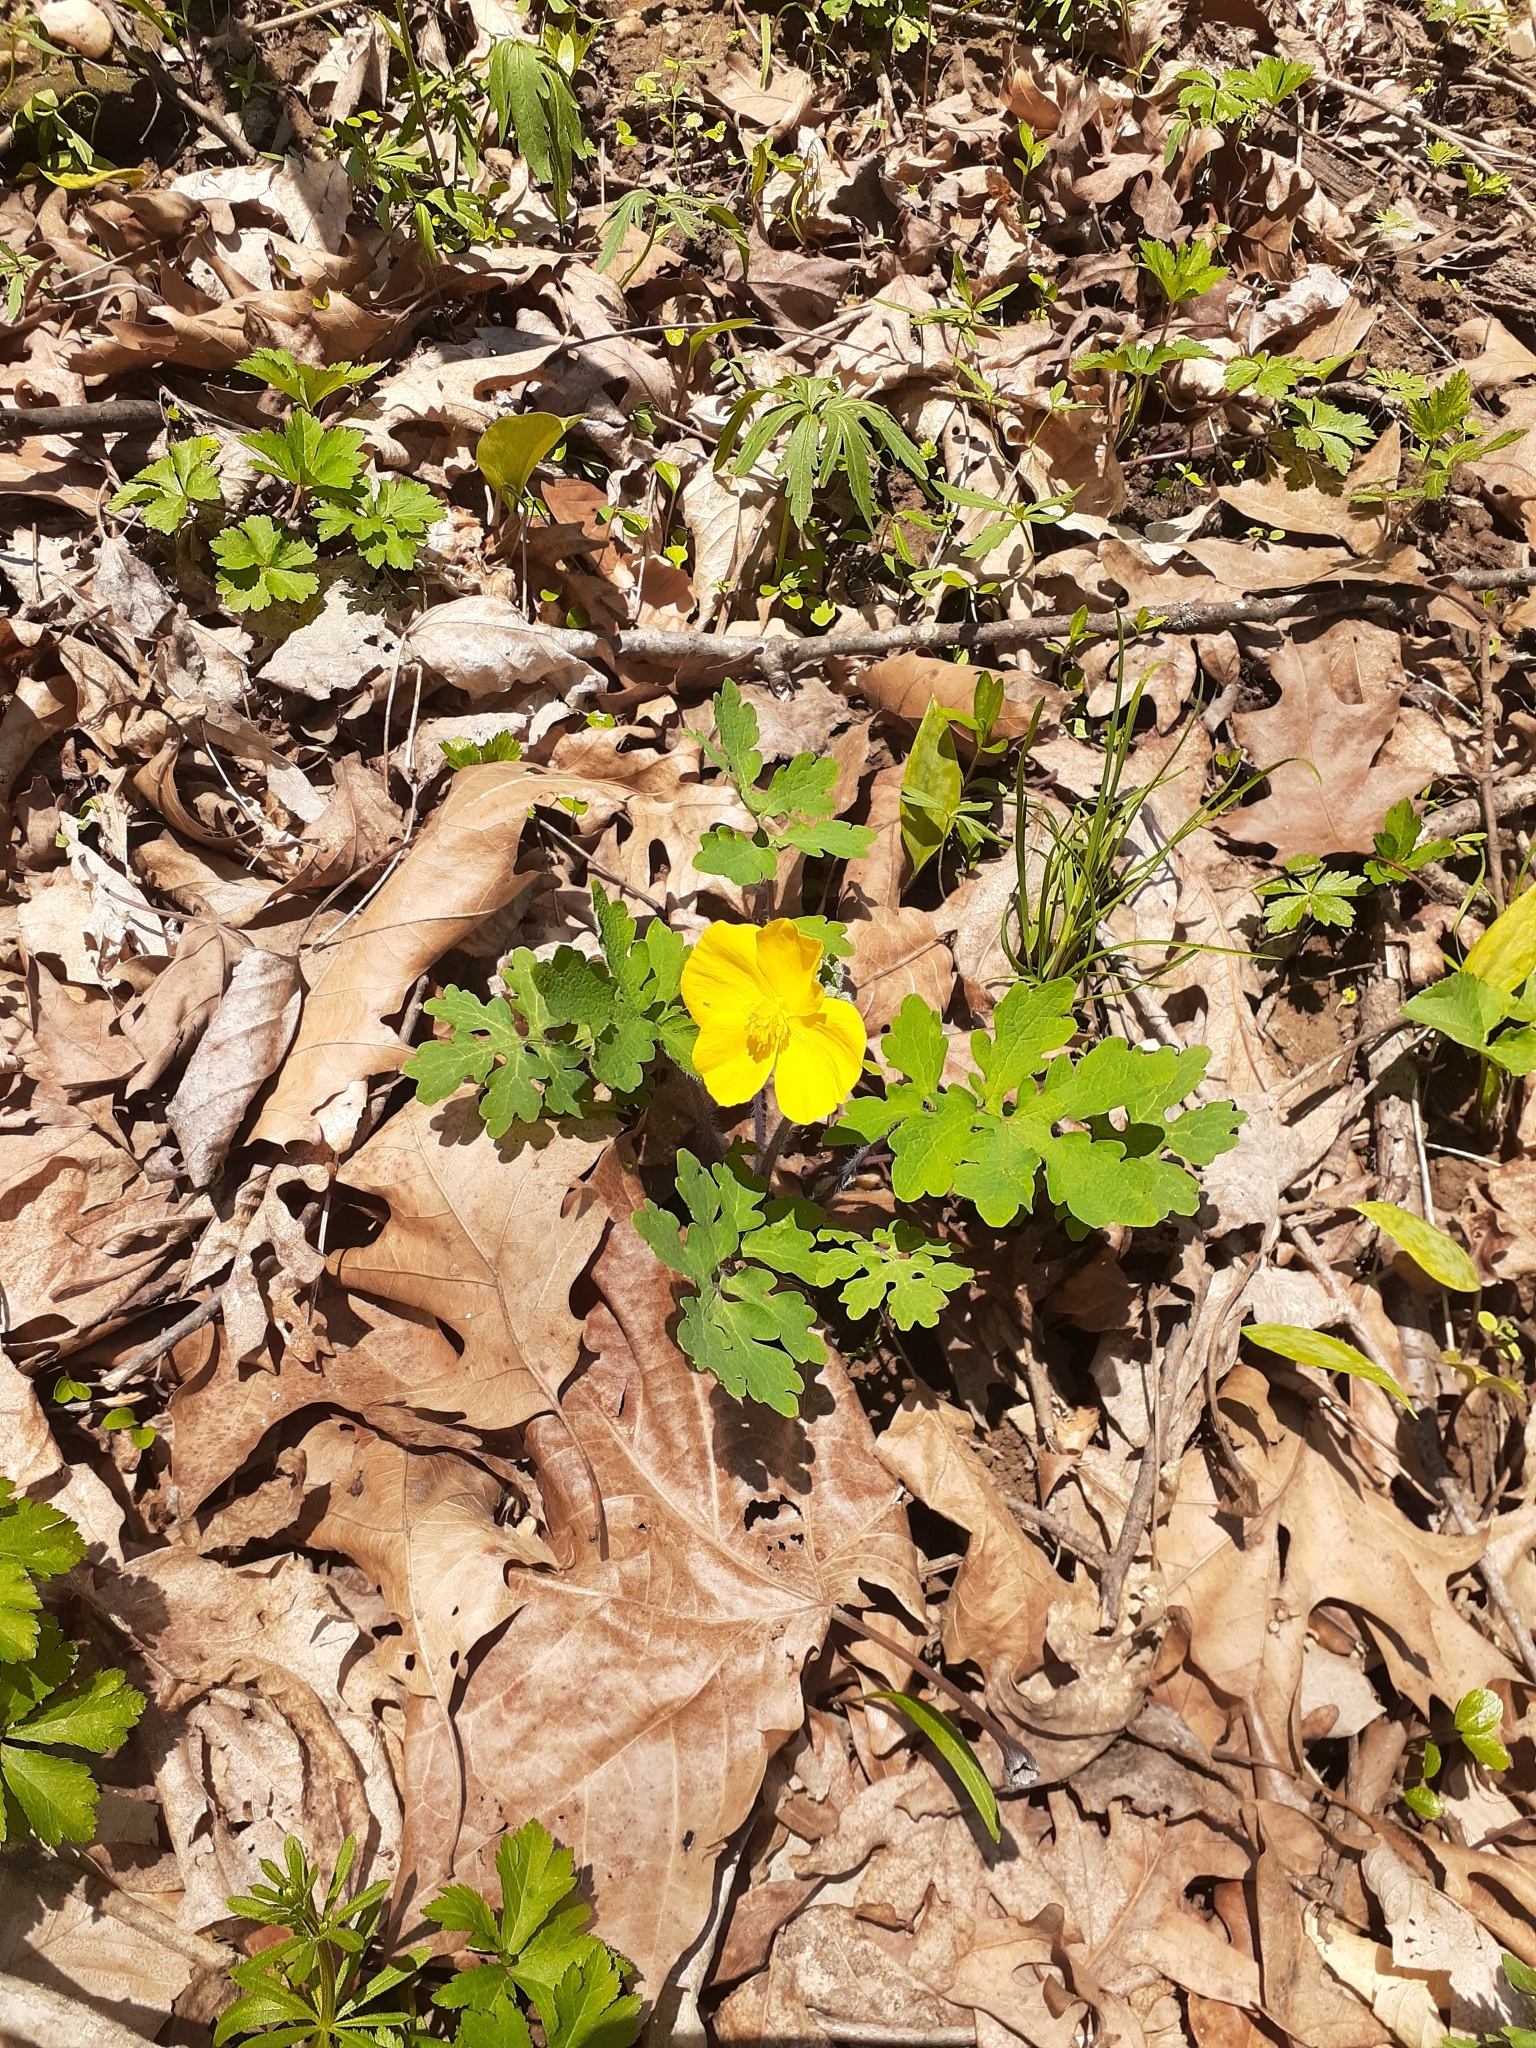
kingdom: Plantae
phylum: Tracheophyta
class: Magnoliopsida
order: Ranunculales
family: Papaveraceae
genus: Stylophorum
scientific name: Stylophorum diphyllum
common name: Celandine poppy
